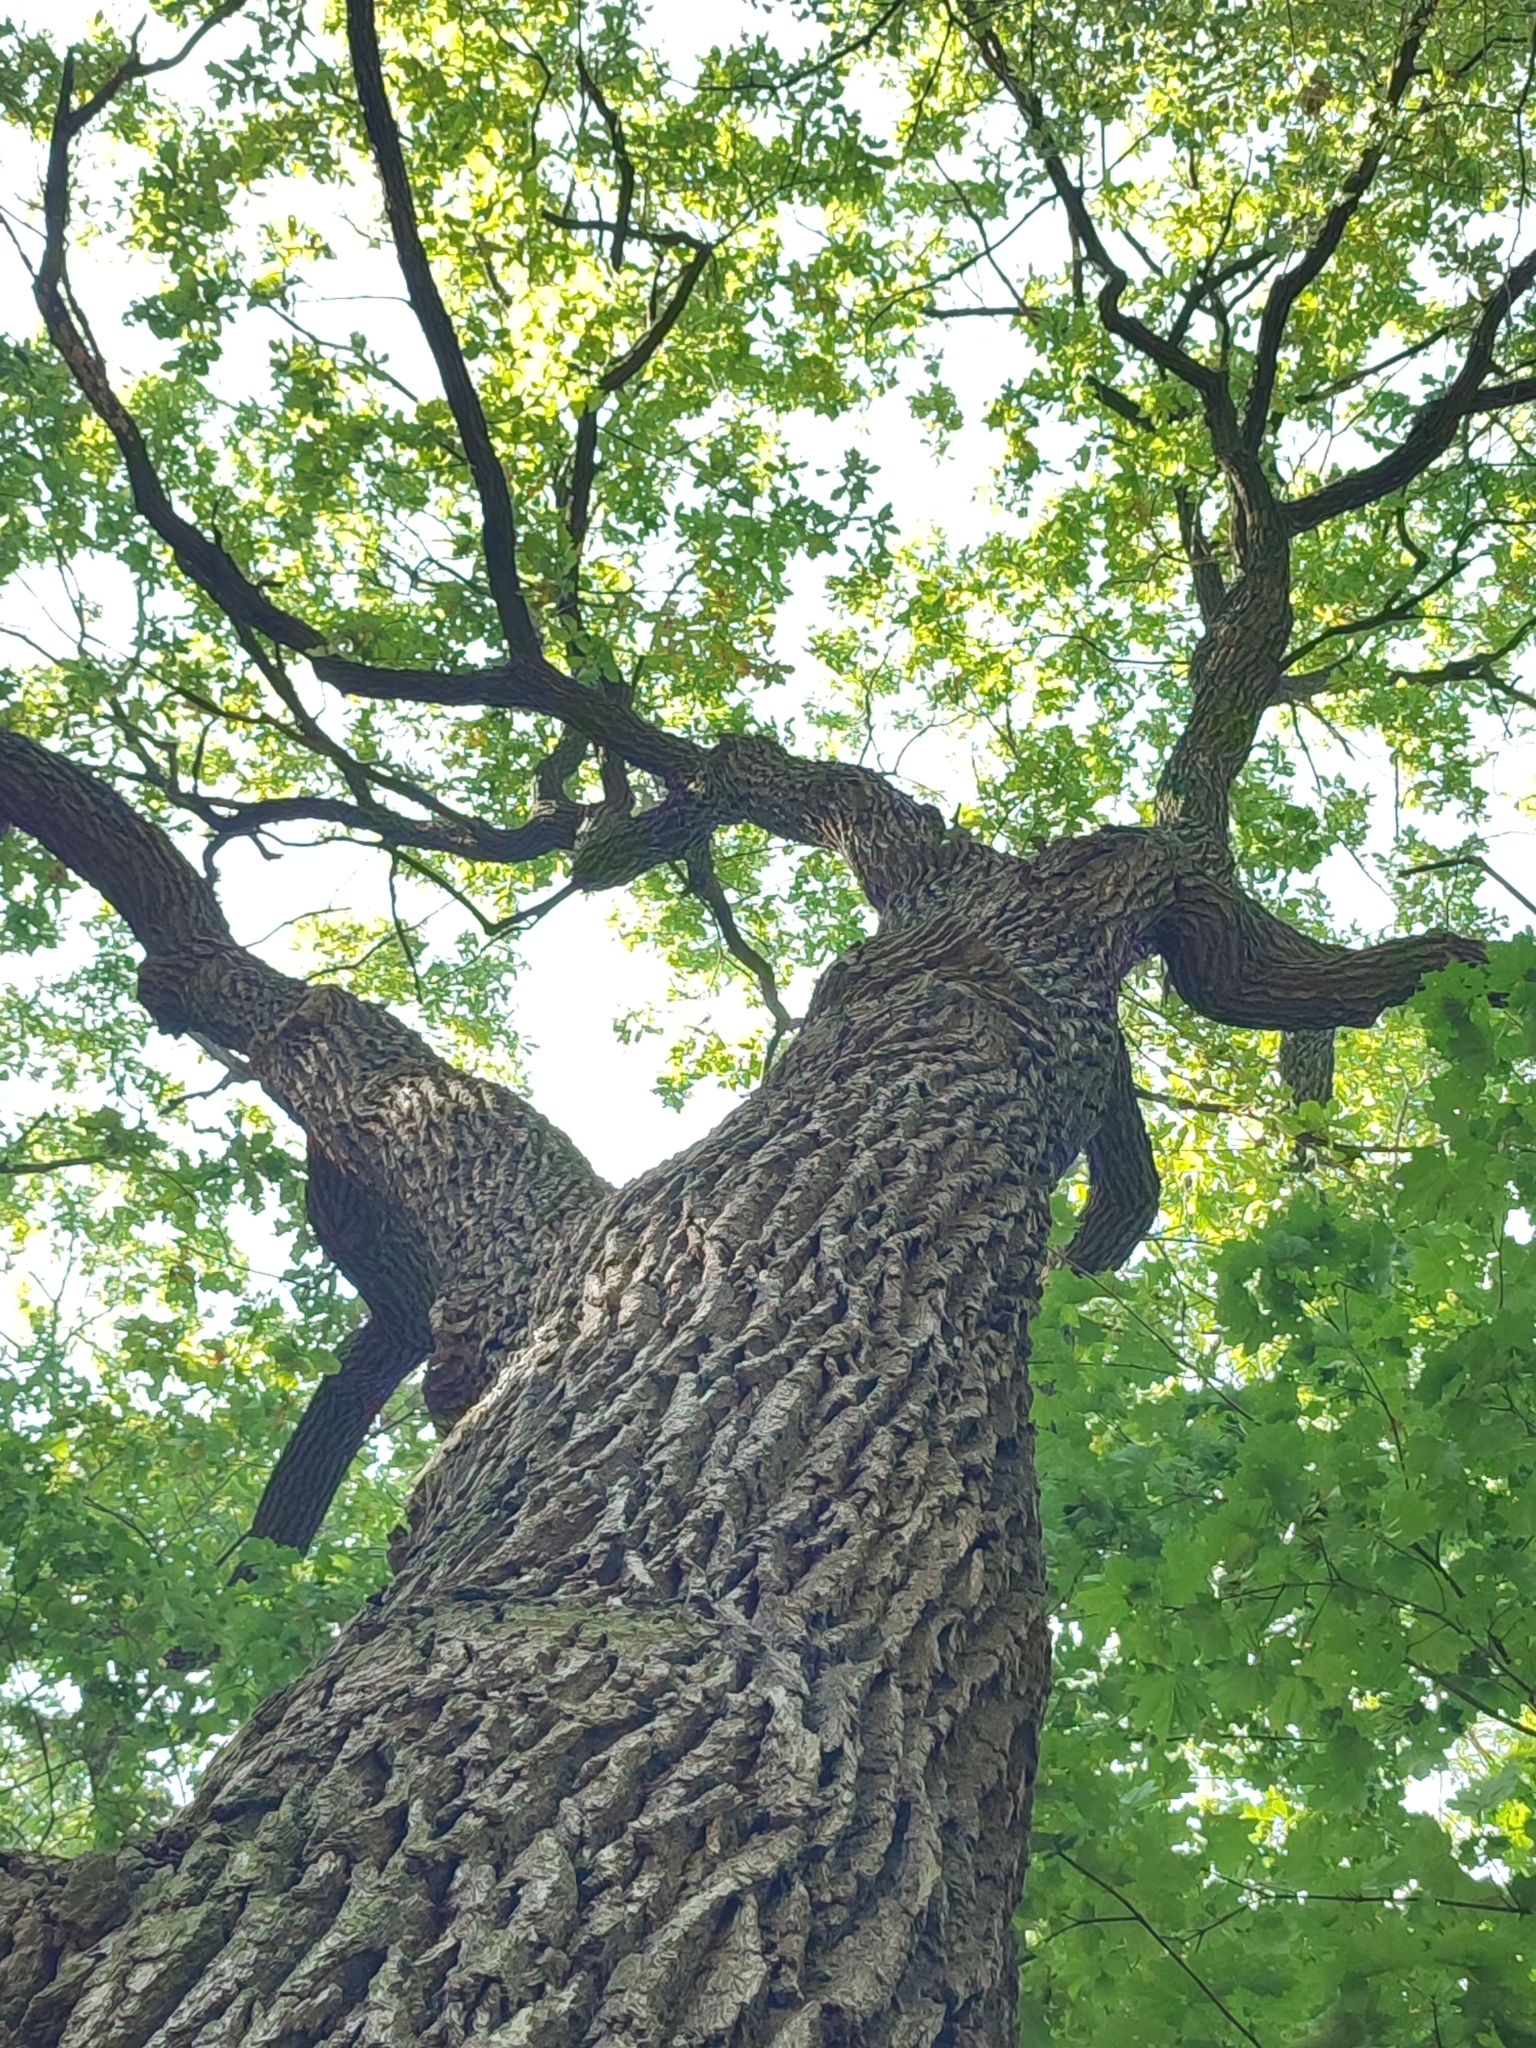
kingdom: Plantae
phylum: Tracheophyta
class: Magnoliopsida
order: Fagales
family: Fagaceae
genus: Quercus
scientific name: Quercus robur
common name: Pedunculate oak
